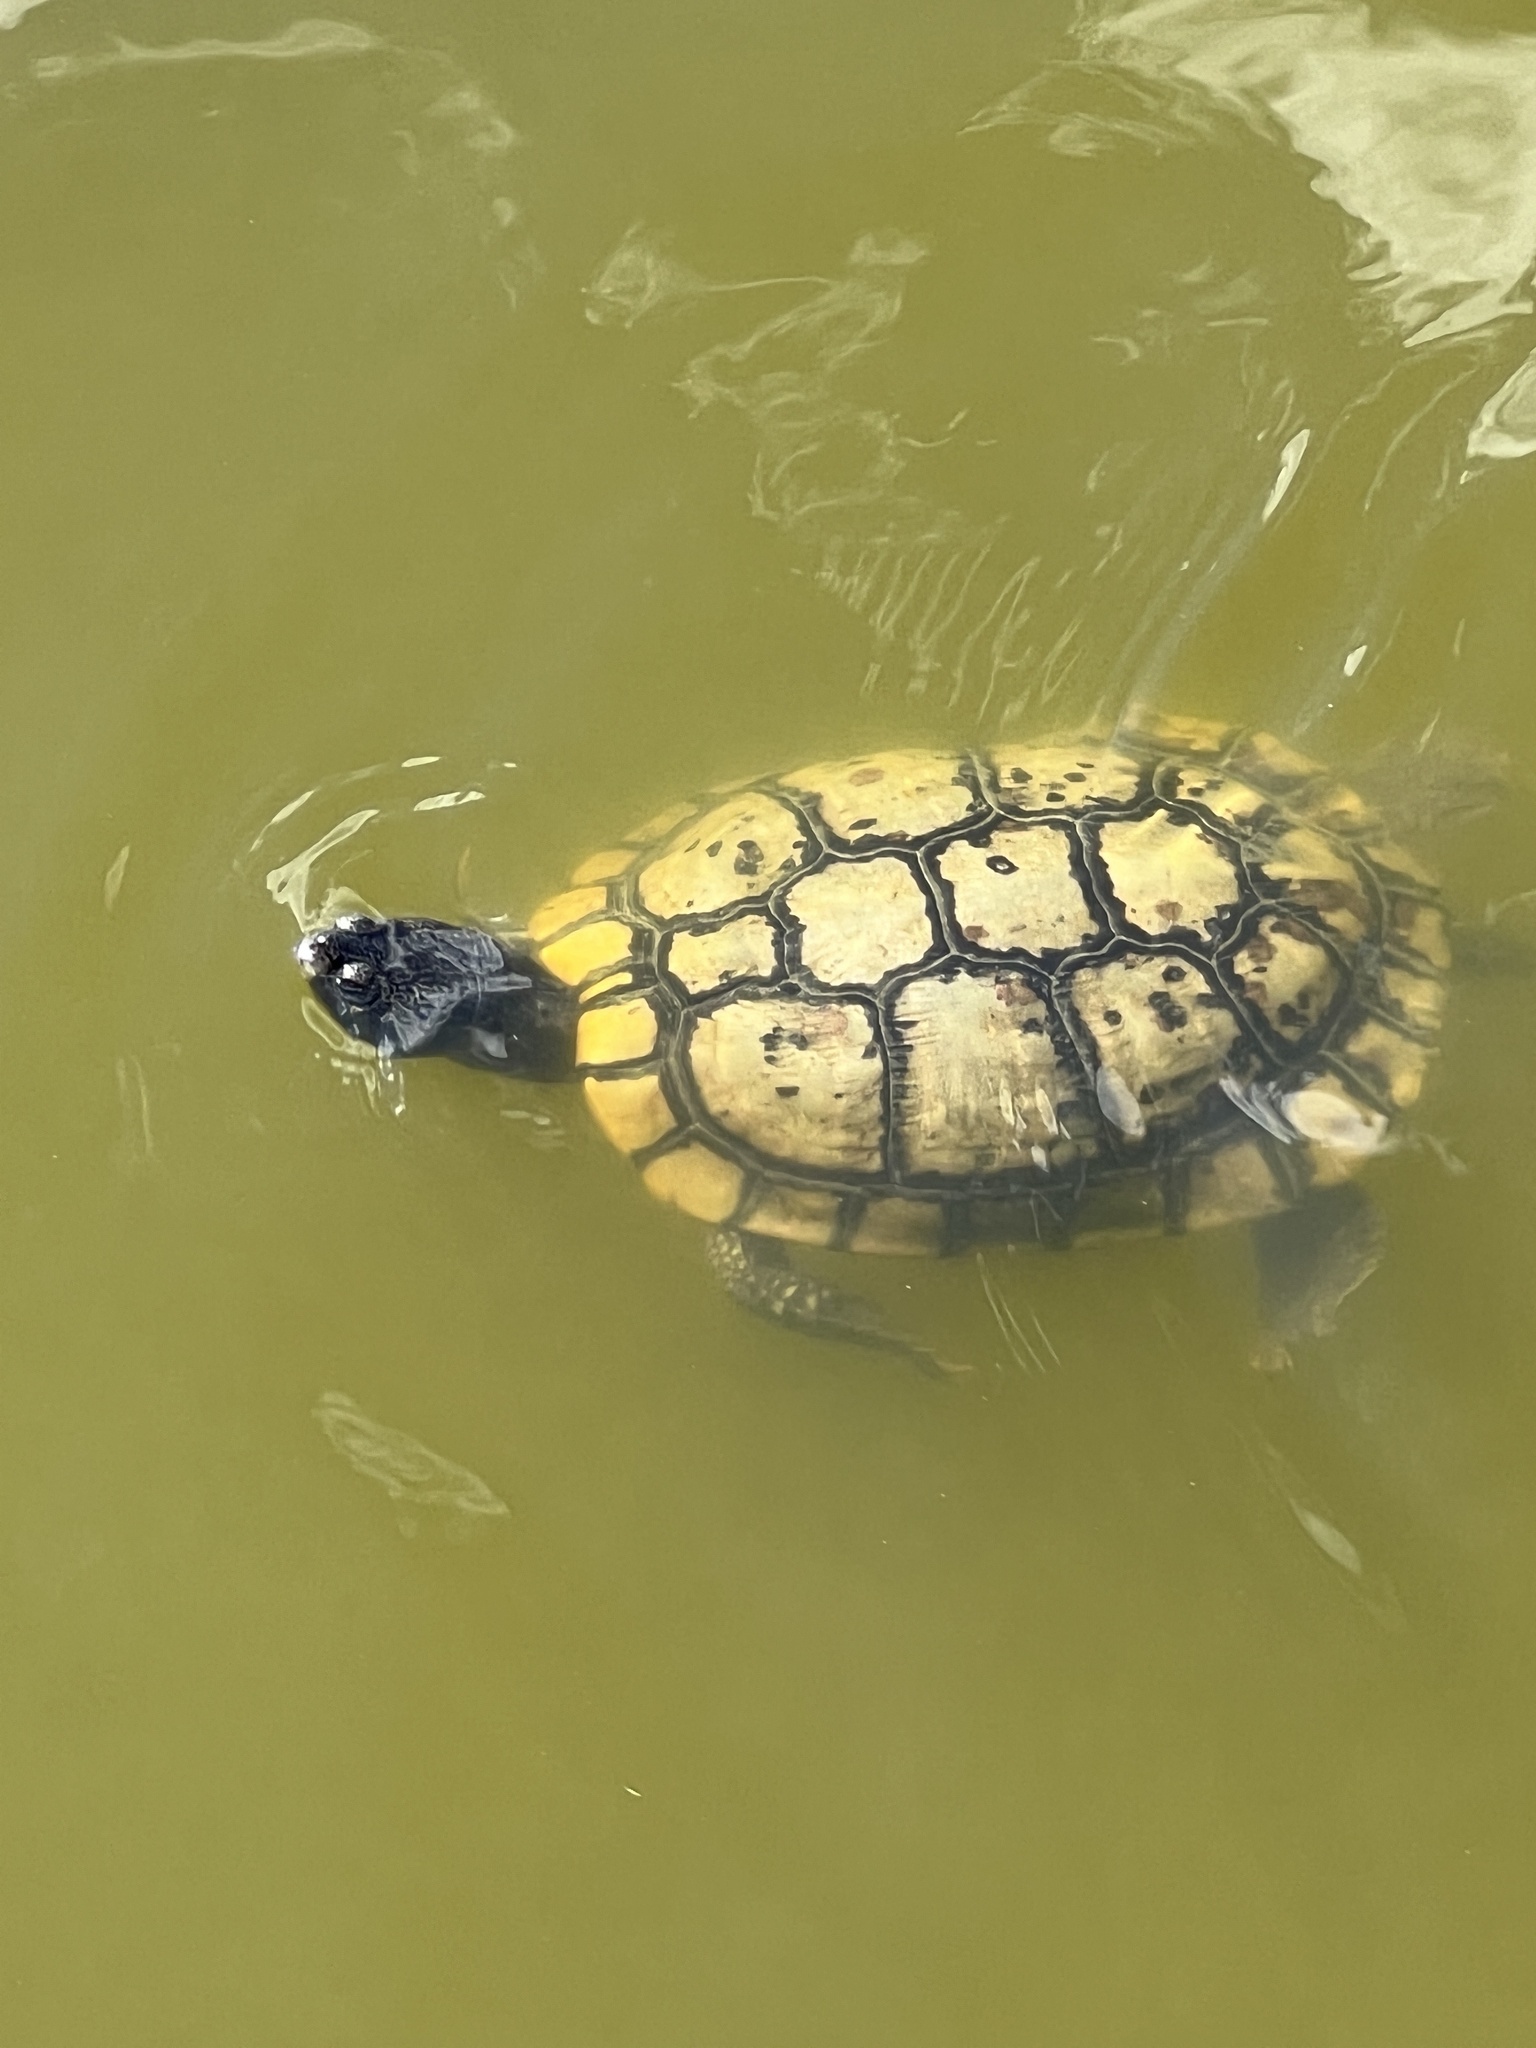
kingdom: Animalia
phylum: Chordata
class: Testudines
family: Emydidae
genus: Trachemys
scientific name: Trachemys scripta
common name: Slider
